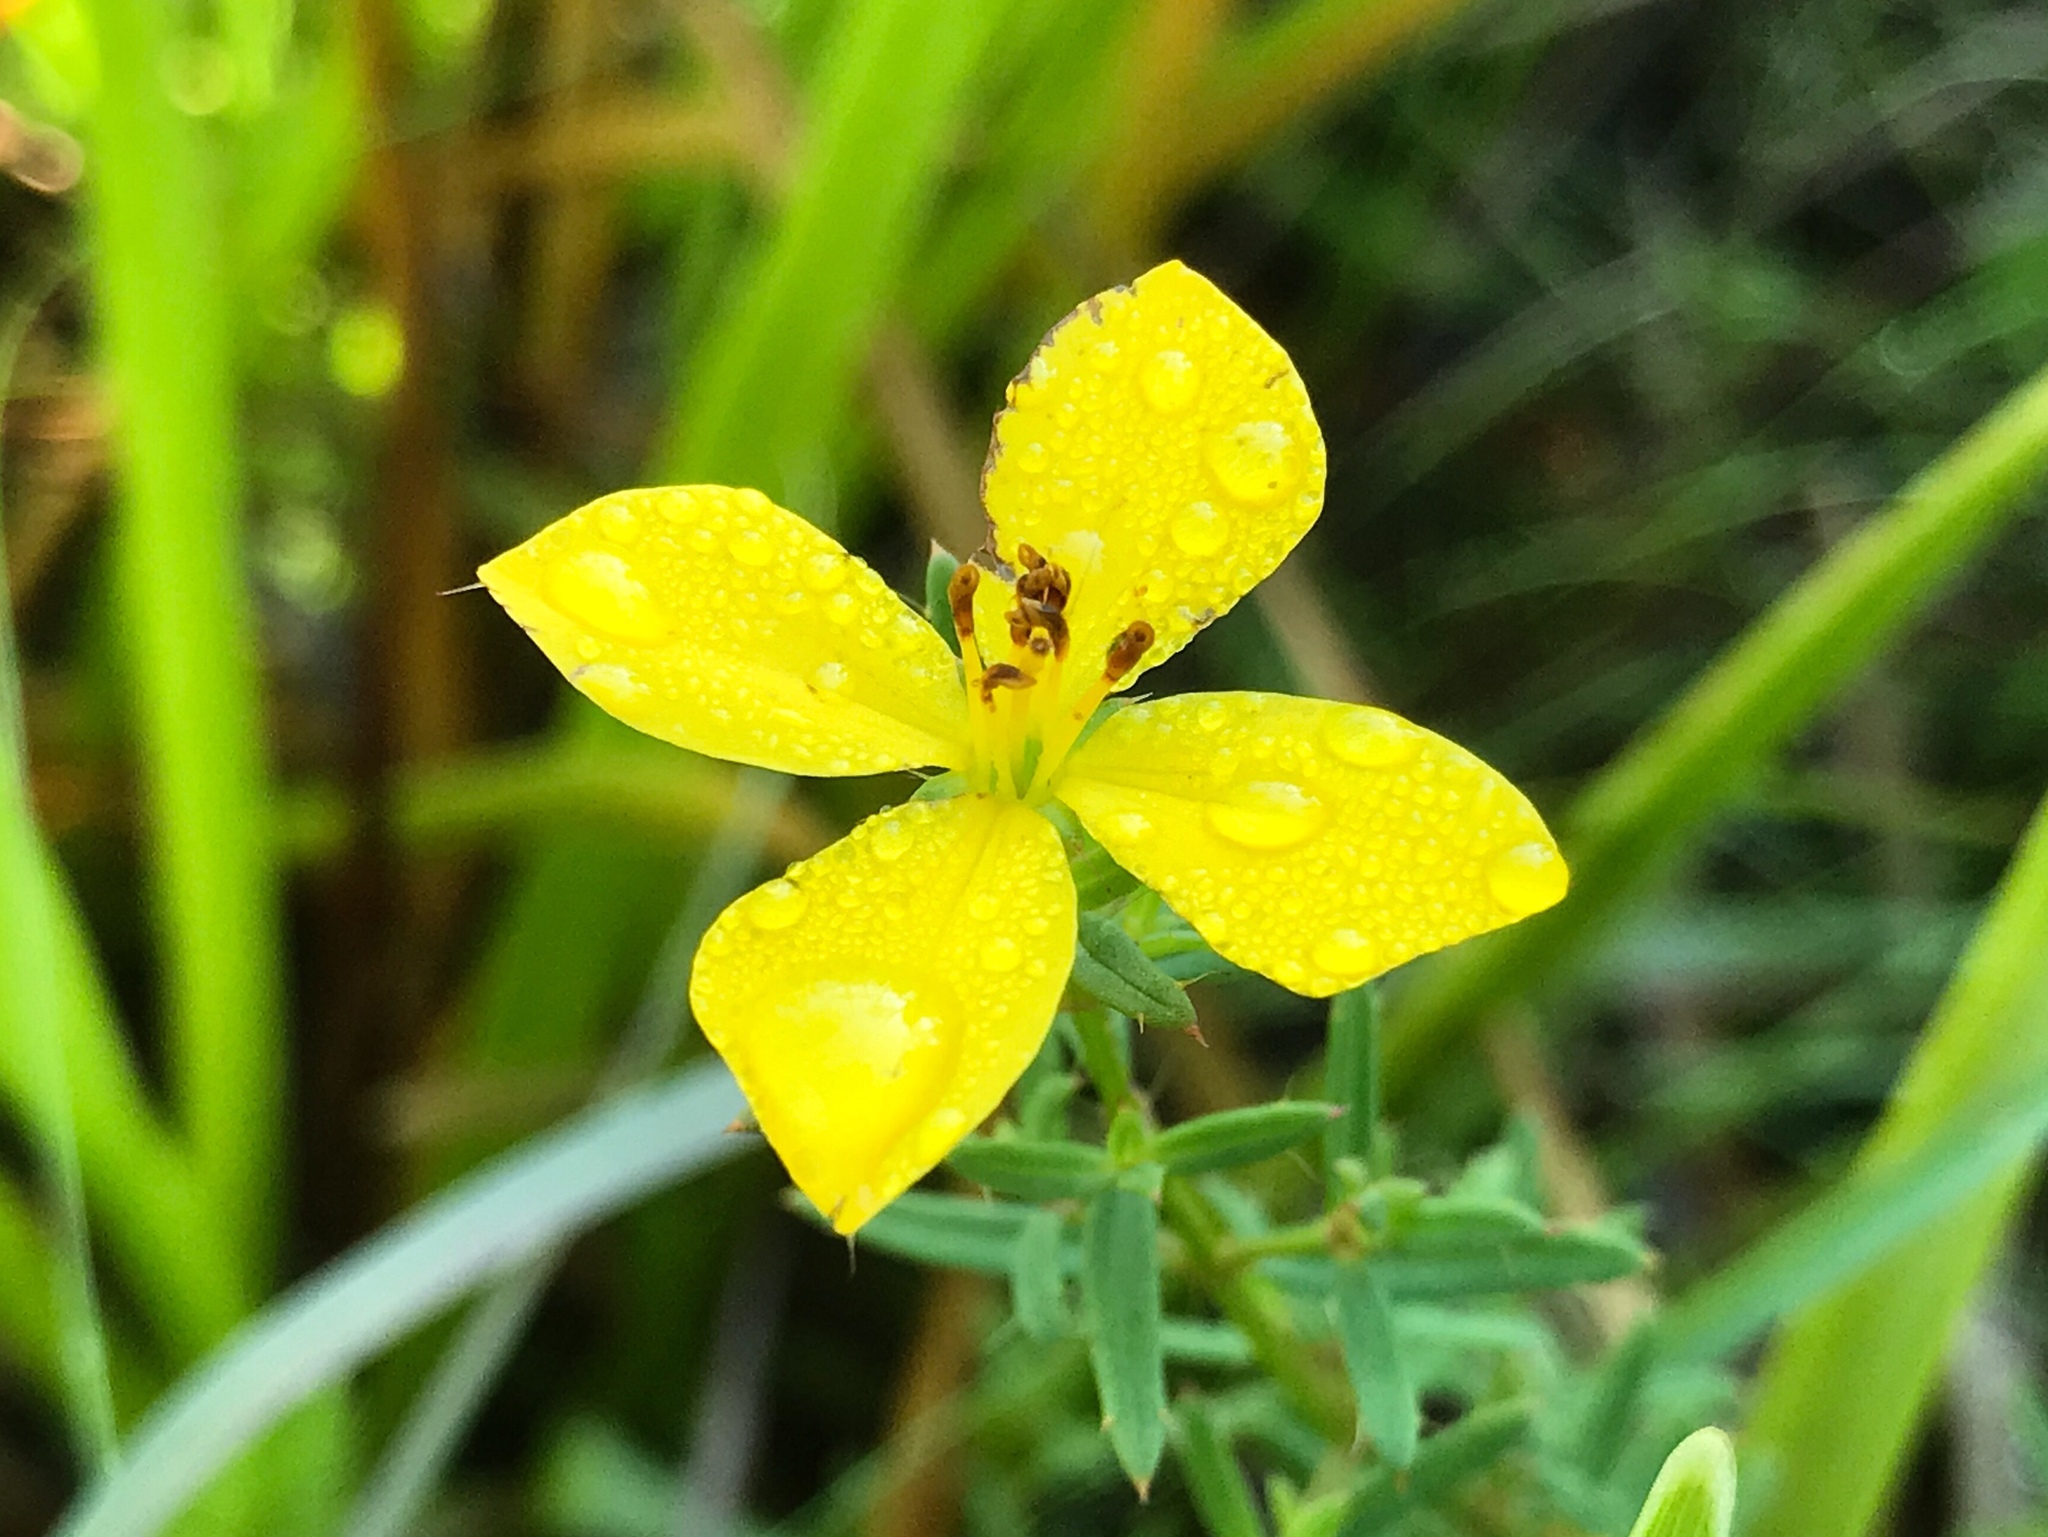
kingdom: Plantae
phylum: Tracheophyta
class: Magnoliopsida
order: Myrtales
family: Melastomataceae
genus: Rhexia
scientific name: Rhexia lutea
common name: Golden meadow-beauty
